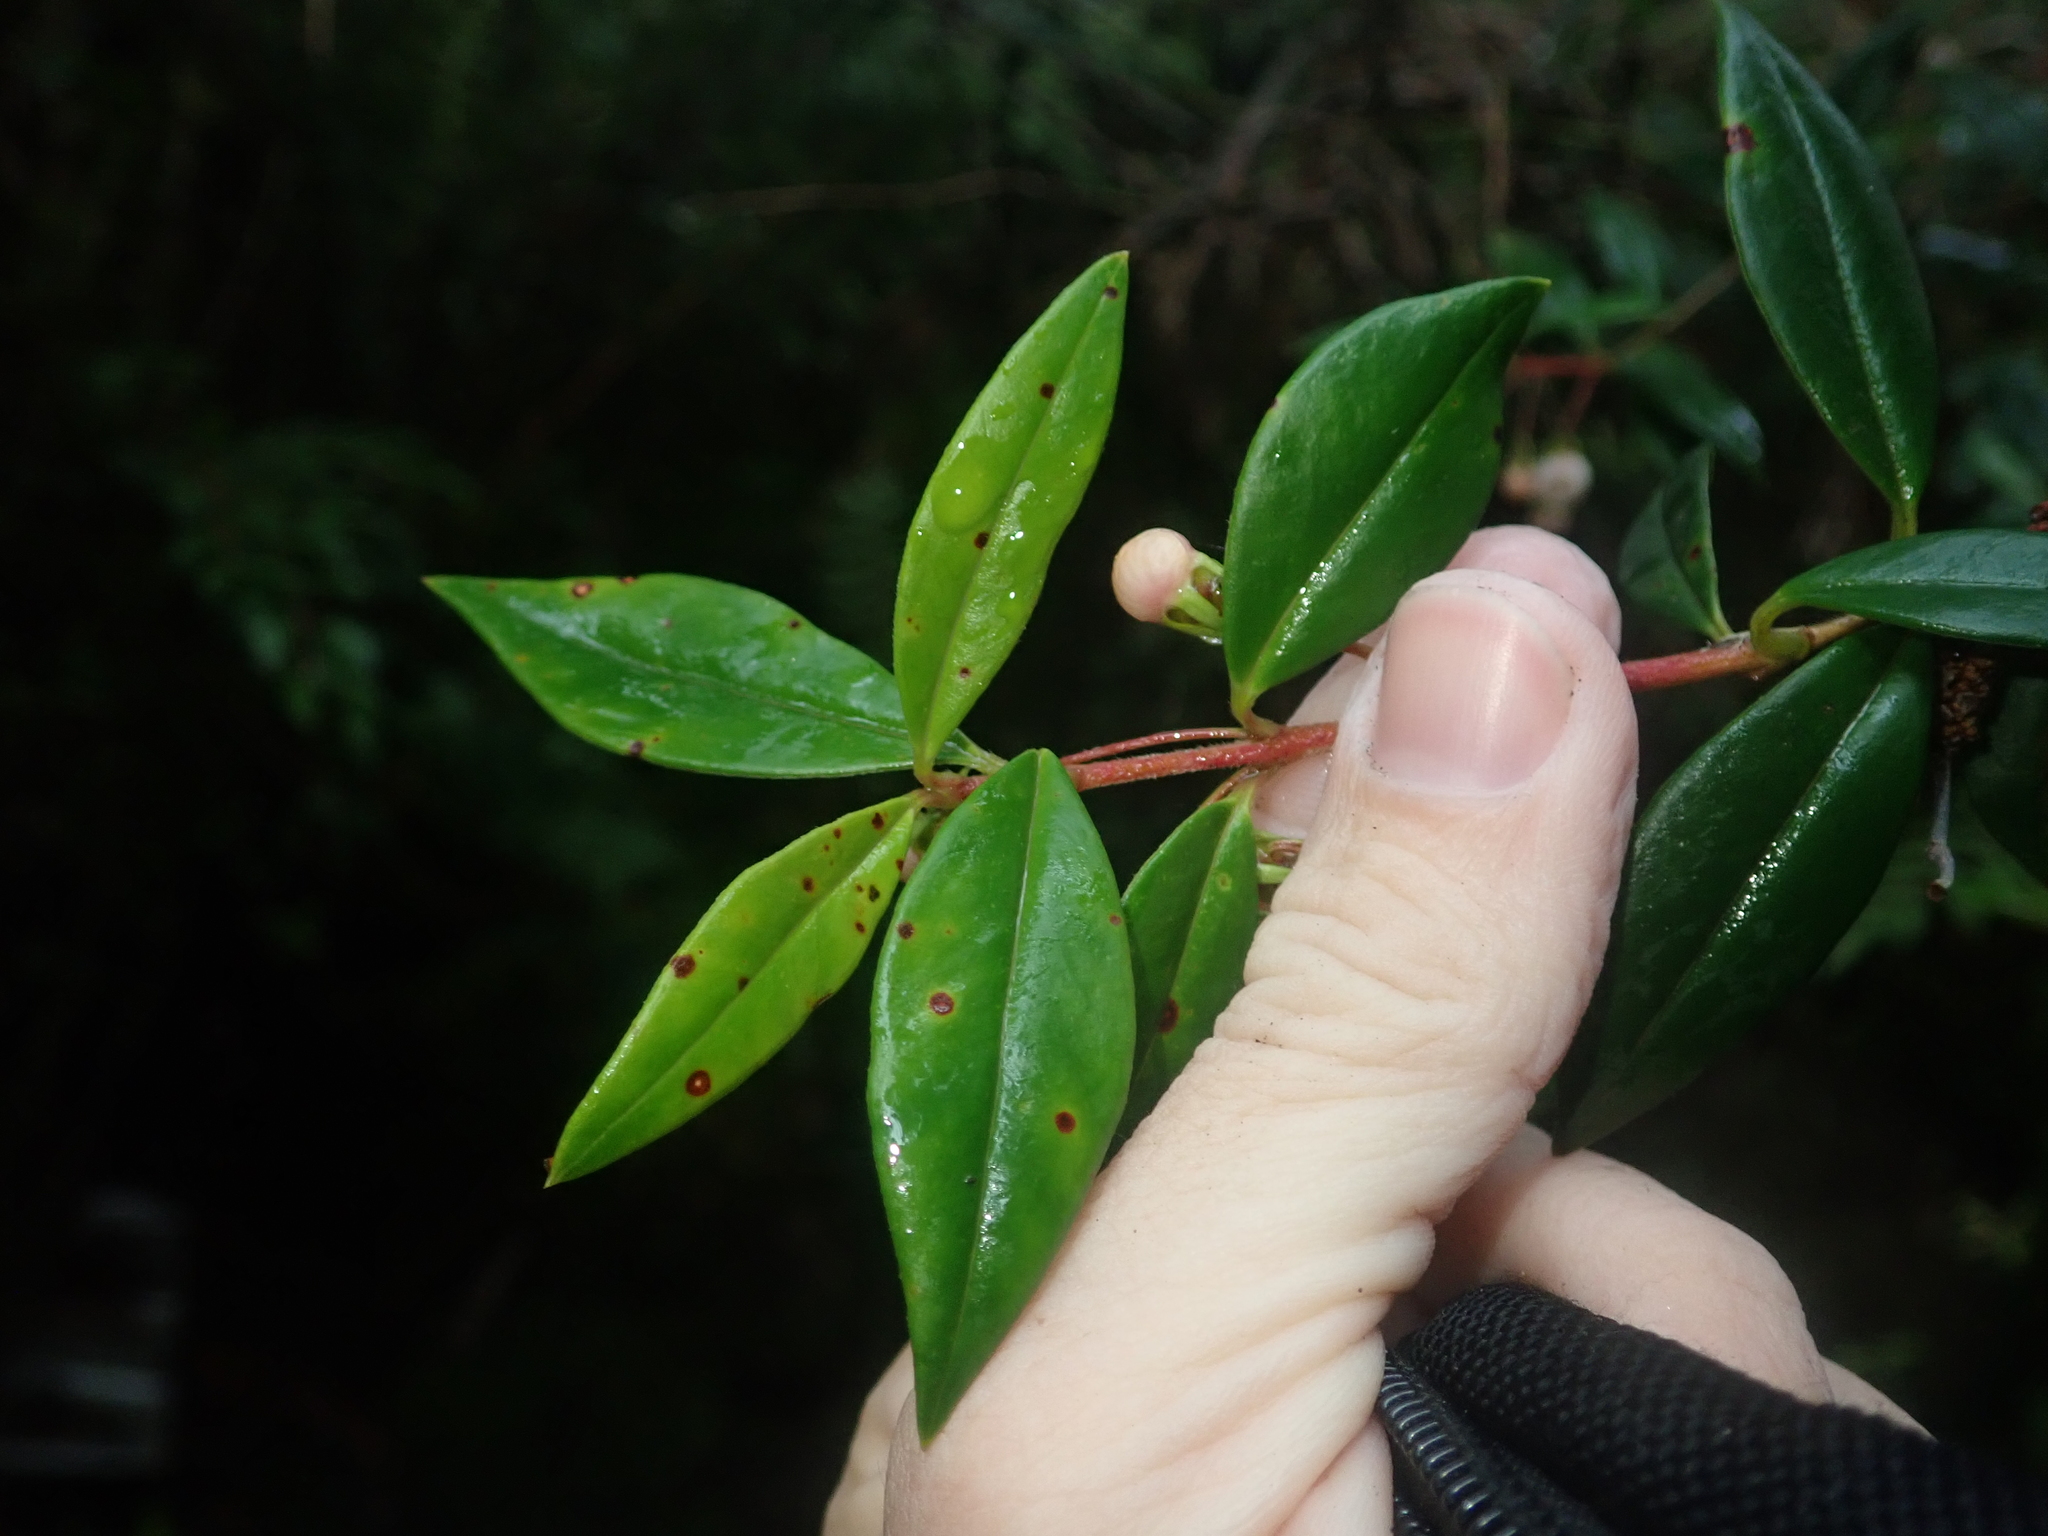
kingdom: Plantae
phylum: Tracheophyta
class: Magnoliopsida
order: Myrtales
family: Myrtaceae
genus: Ugni
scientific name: Ugni molinae
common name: Chilean-guava
